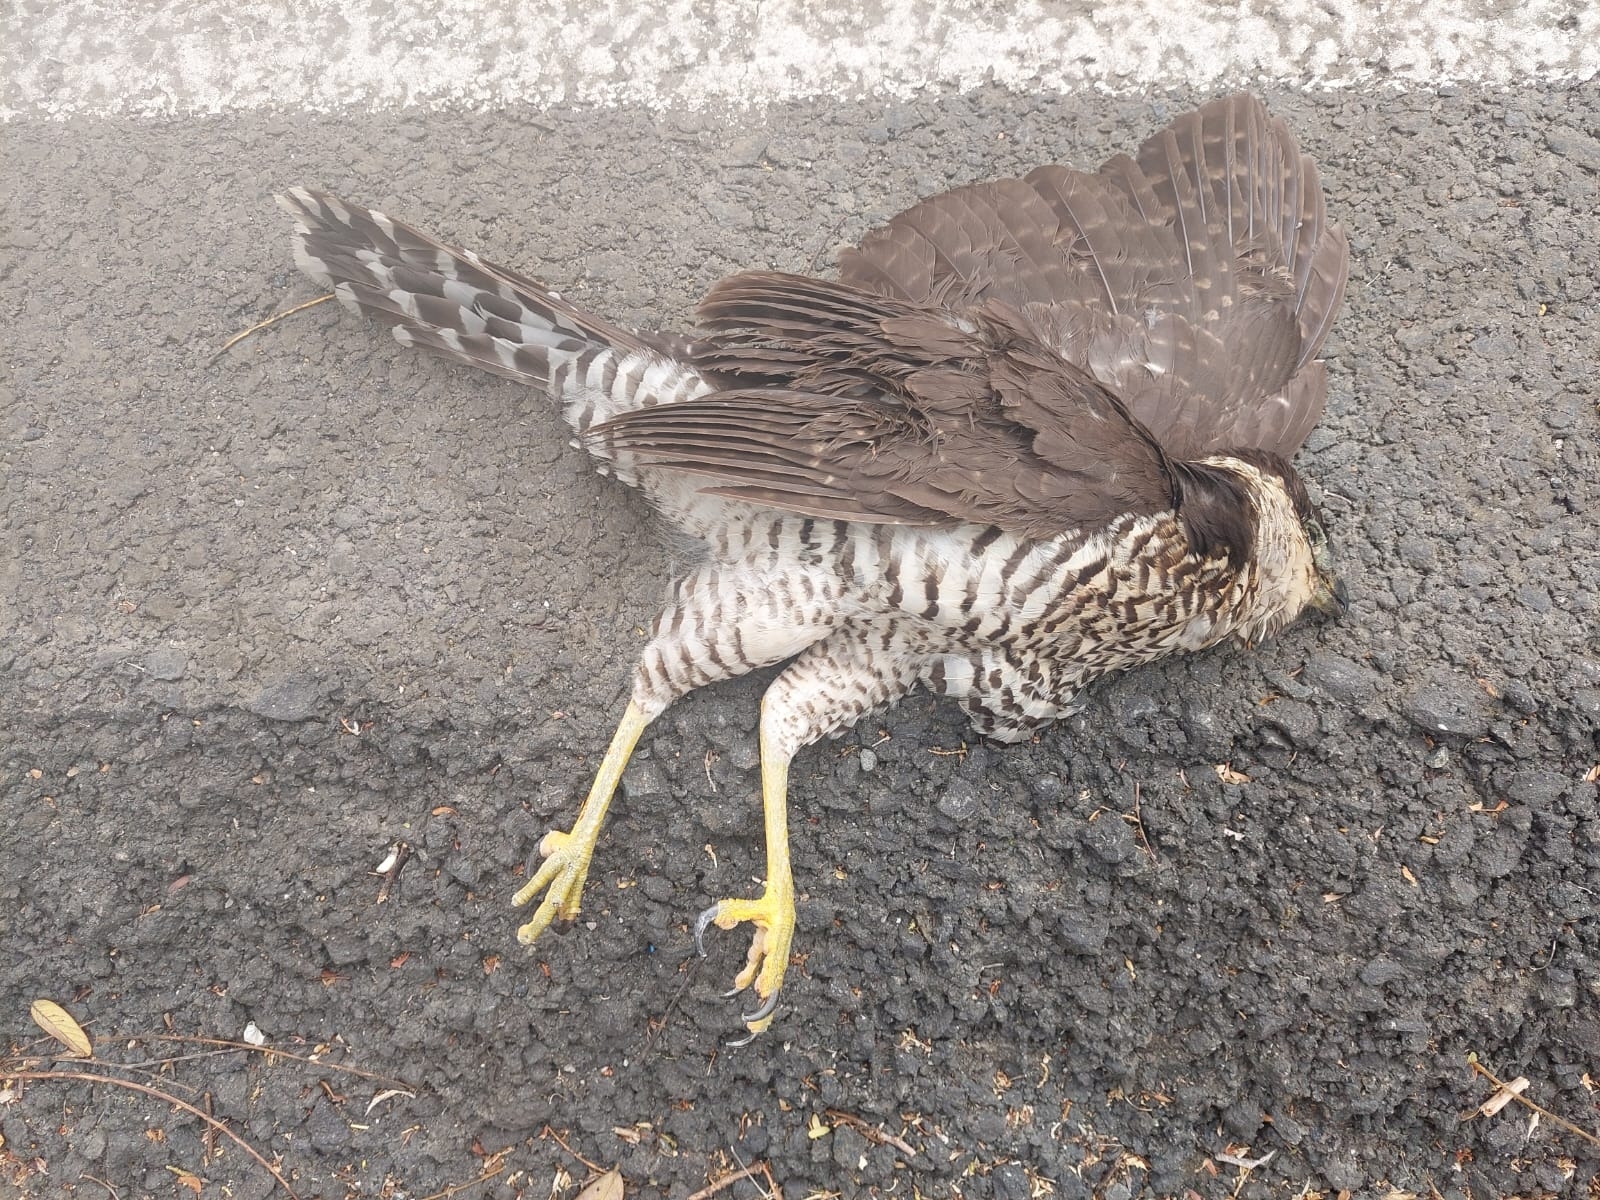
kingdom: Animalia
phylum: Chordata
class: Aves
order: Falconiformes
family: Falconidae
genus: Micrastur
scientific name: Micrastur semitorquatus
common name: Collared forest-falcon
